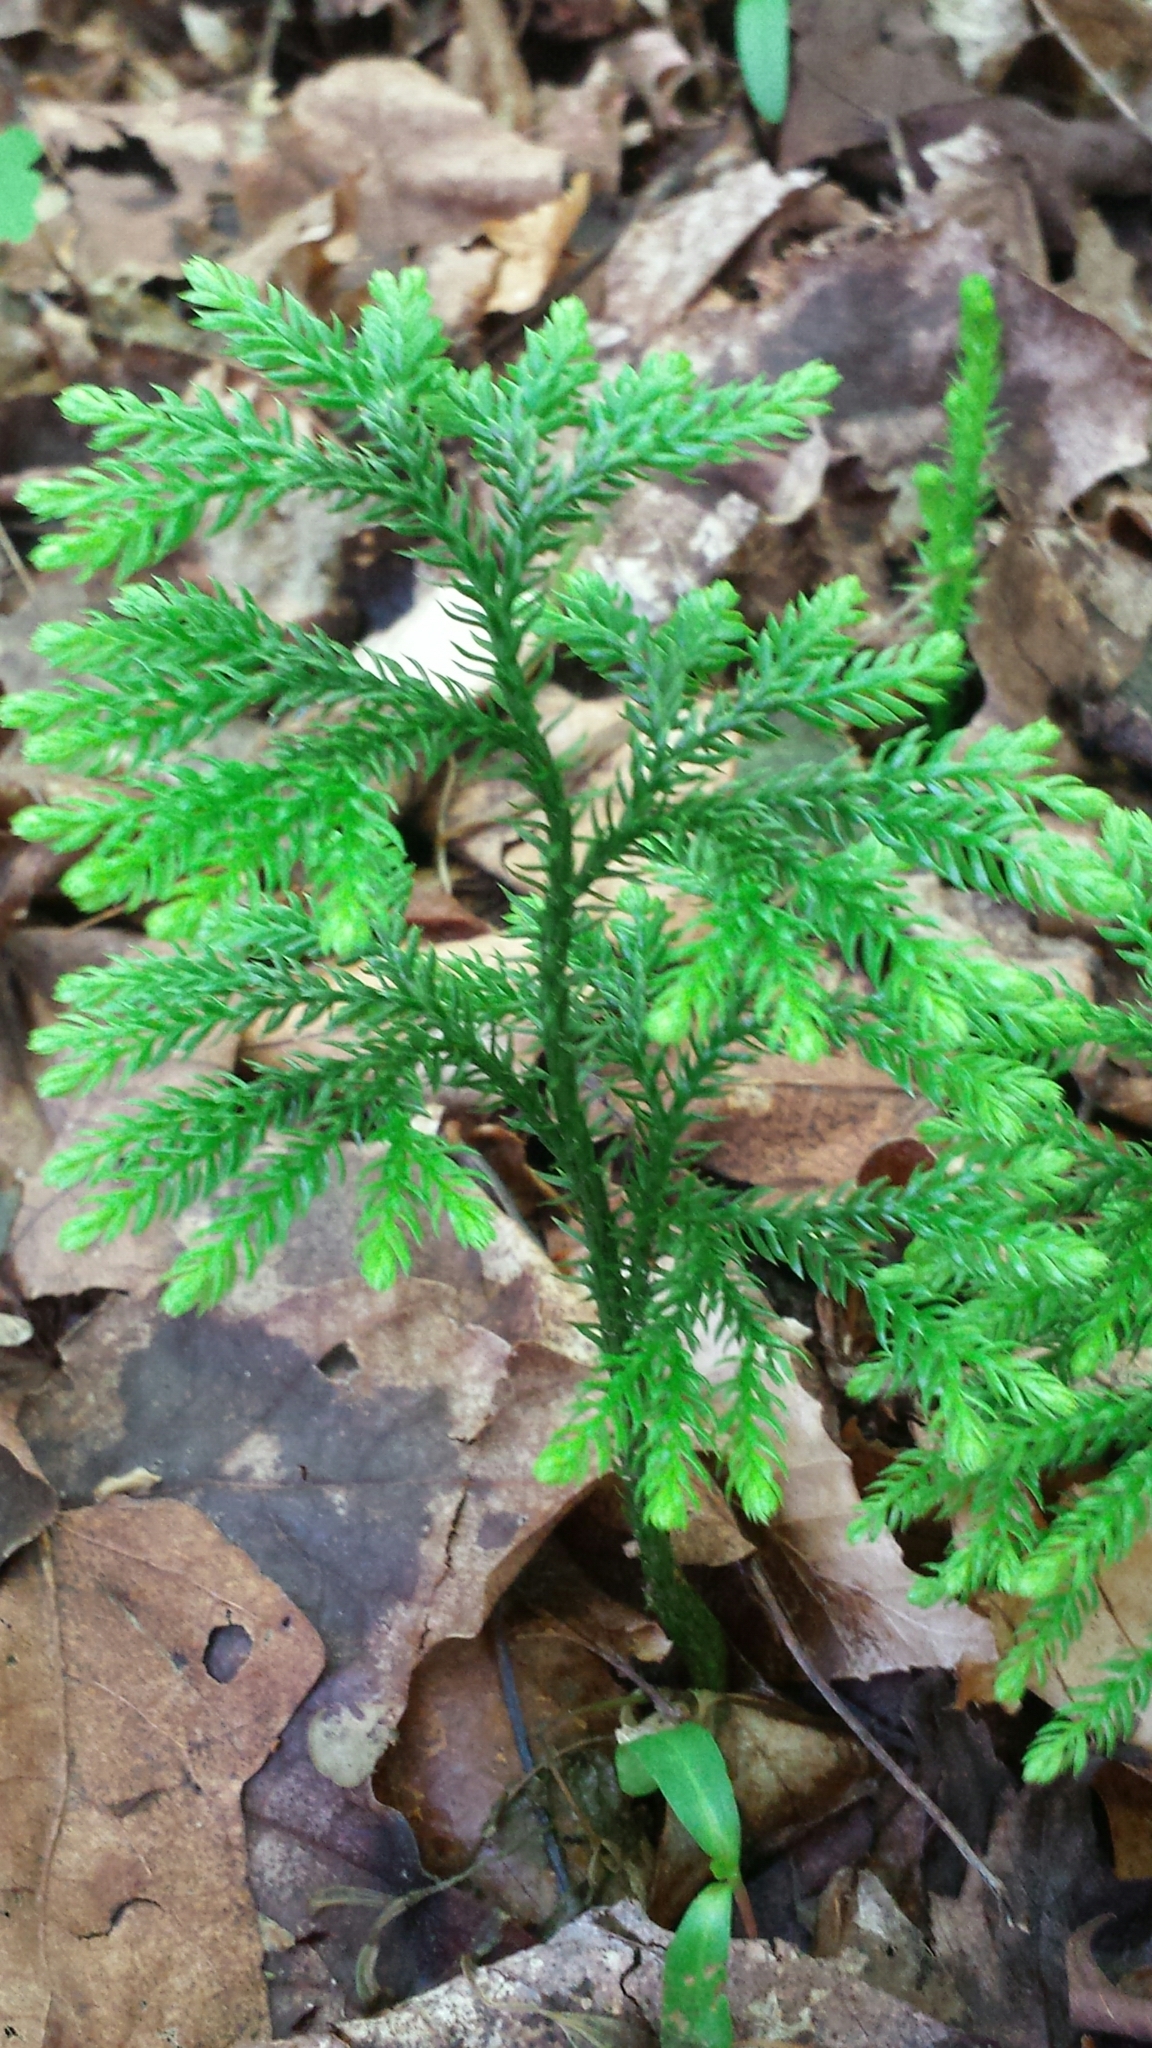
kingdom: Plantae
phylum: Tracheophyta
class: Lycopodiopsida
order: Lycopodiales
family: Lycopodiaceae
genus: Dendrolycopodium
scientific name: Dendrolycopodium dendroideum
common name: Northern tree-clubmoss
